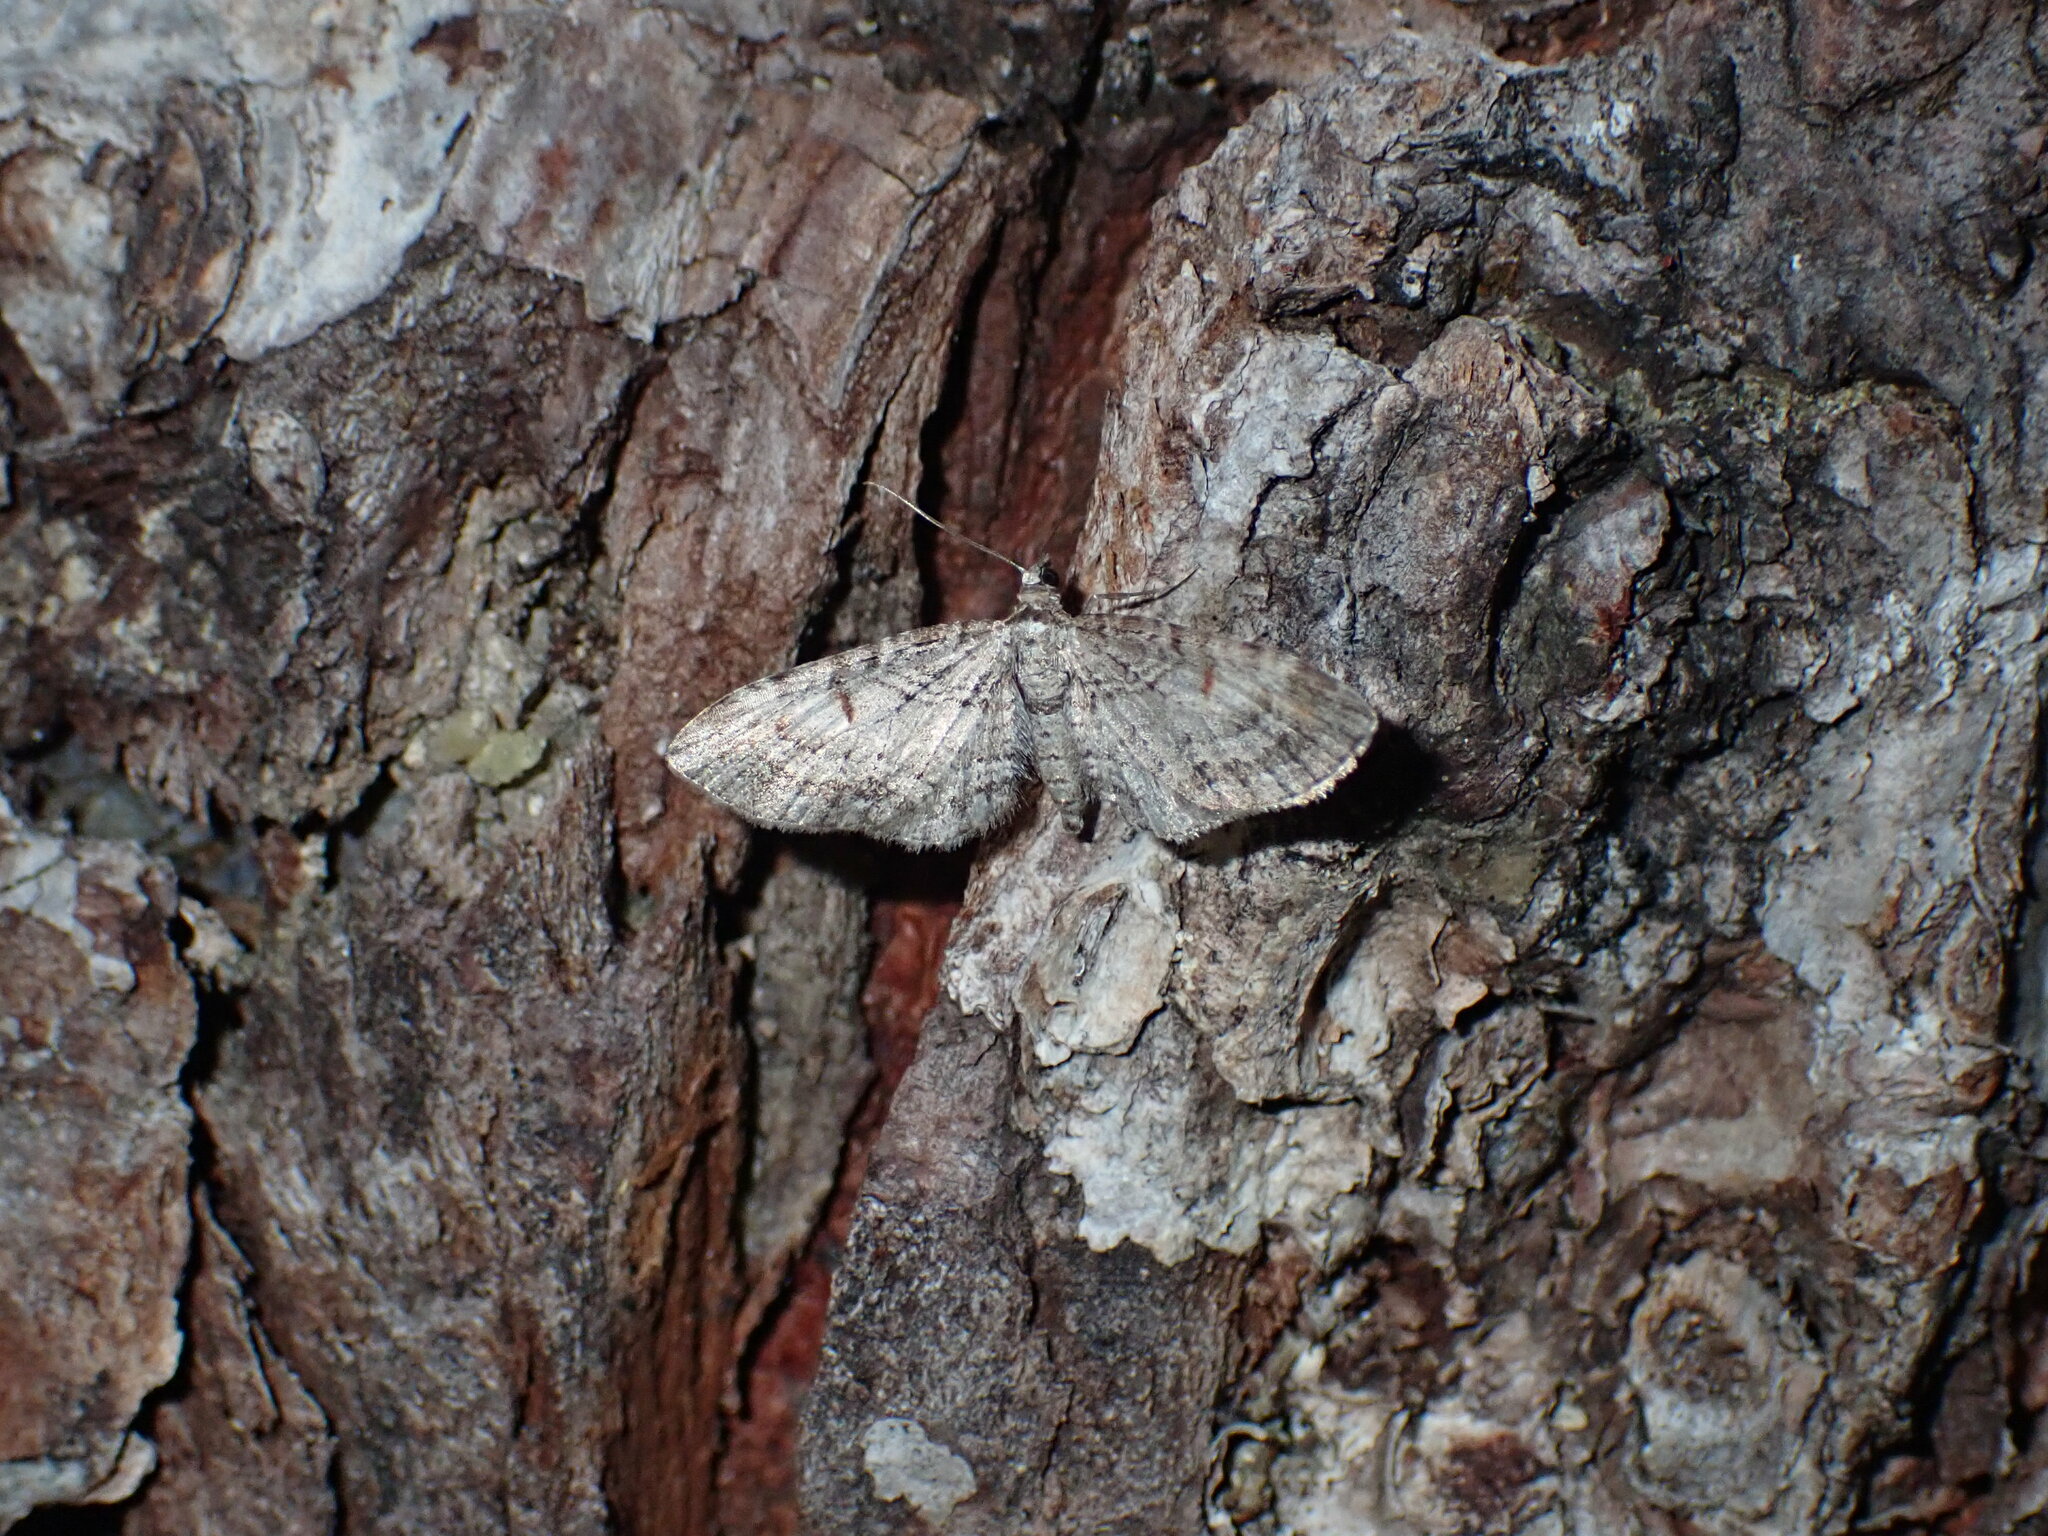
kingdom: Animalia
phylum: Arthropoda
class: Insecta
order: Lepidoptera
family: Geometridae
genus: Eupithecia
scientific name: Eupithecia graefii
